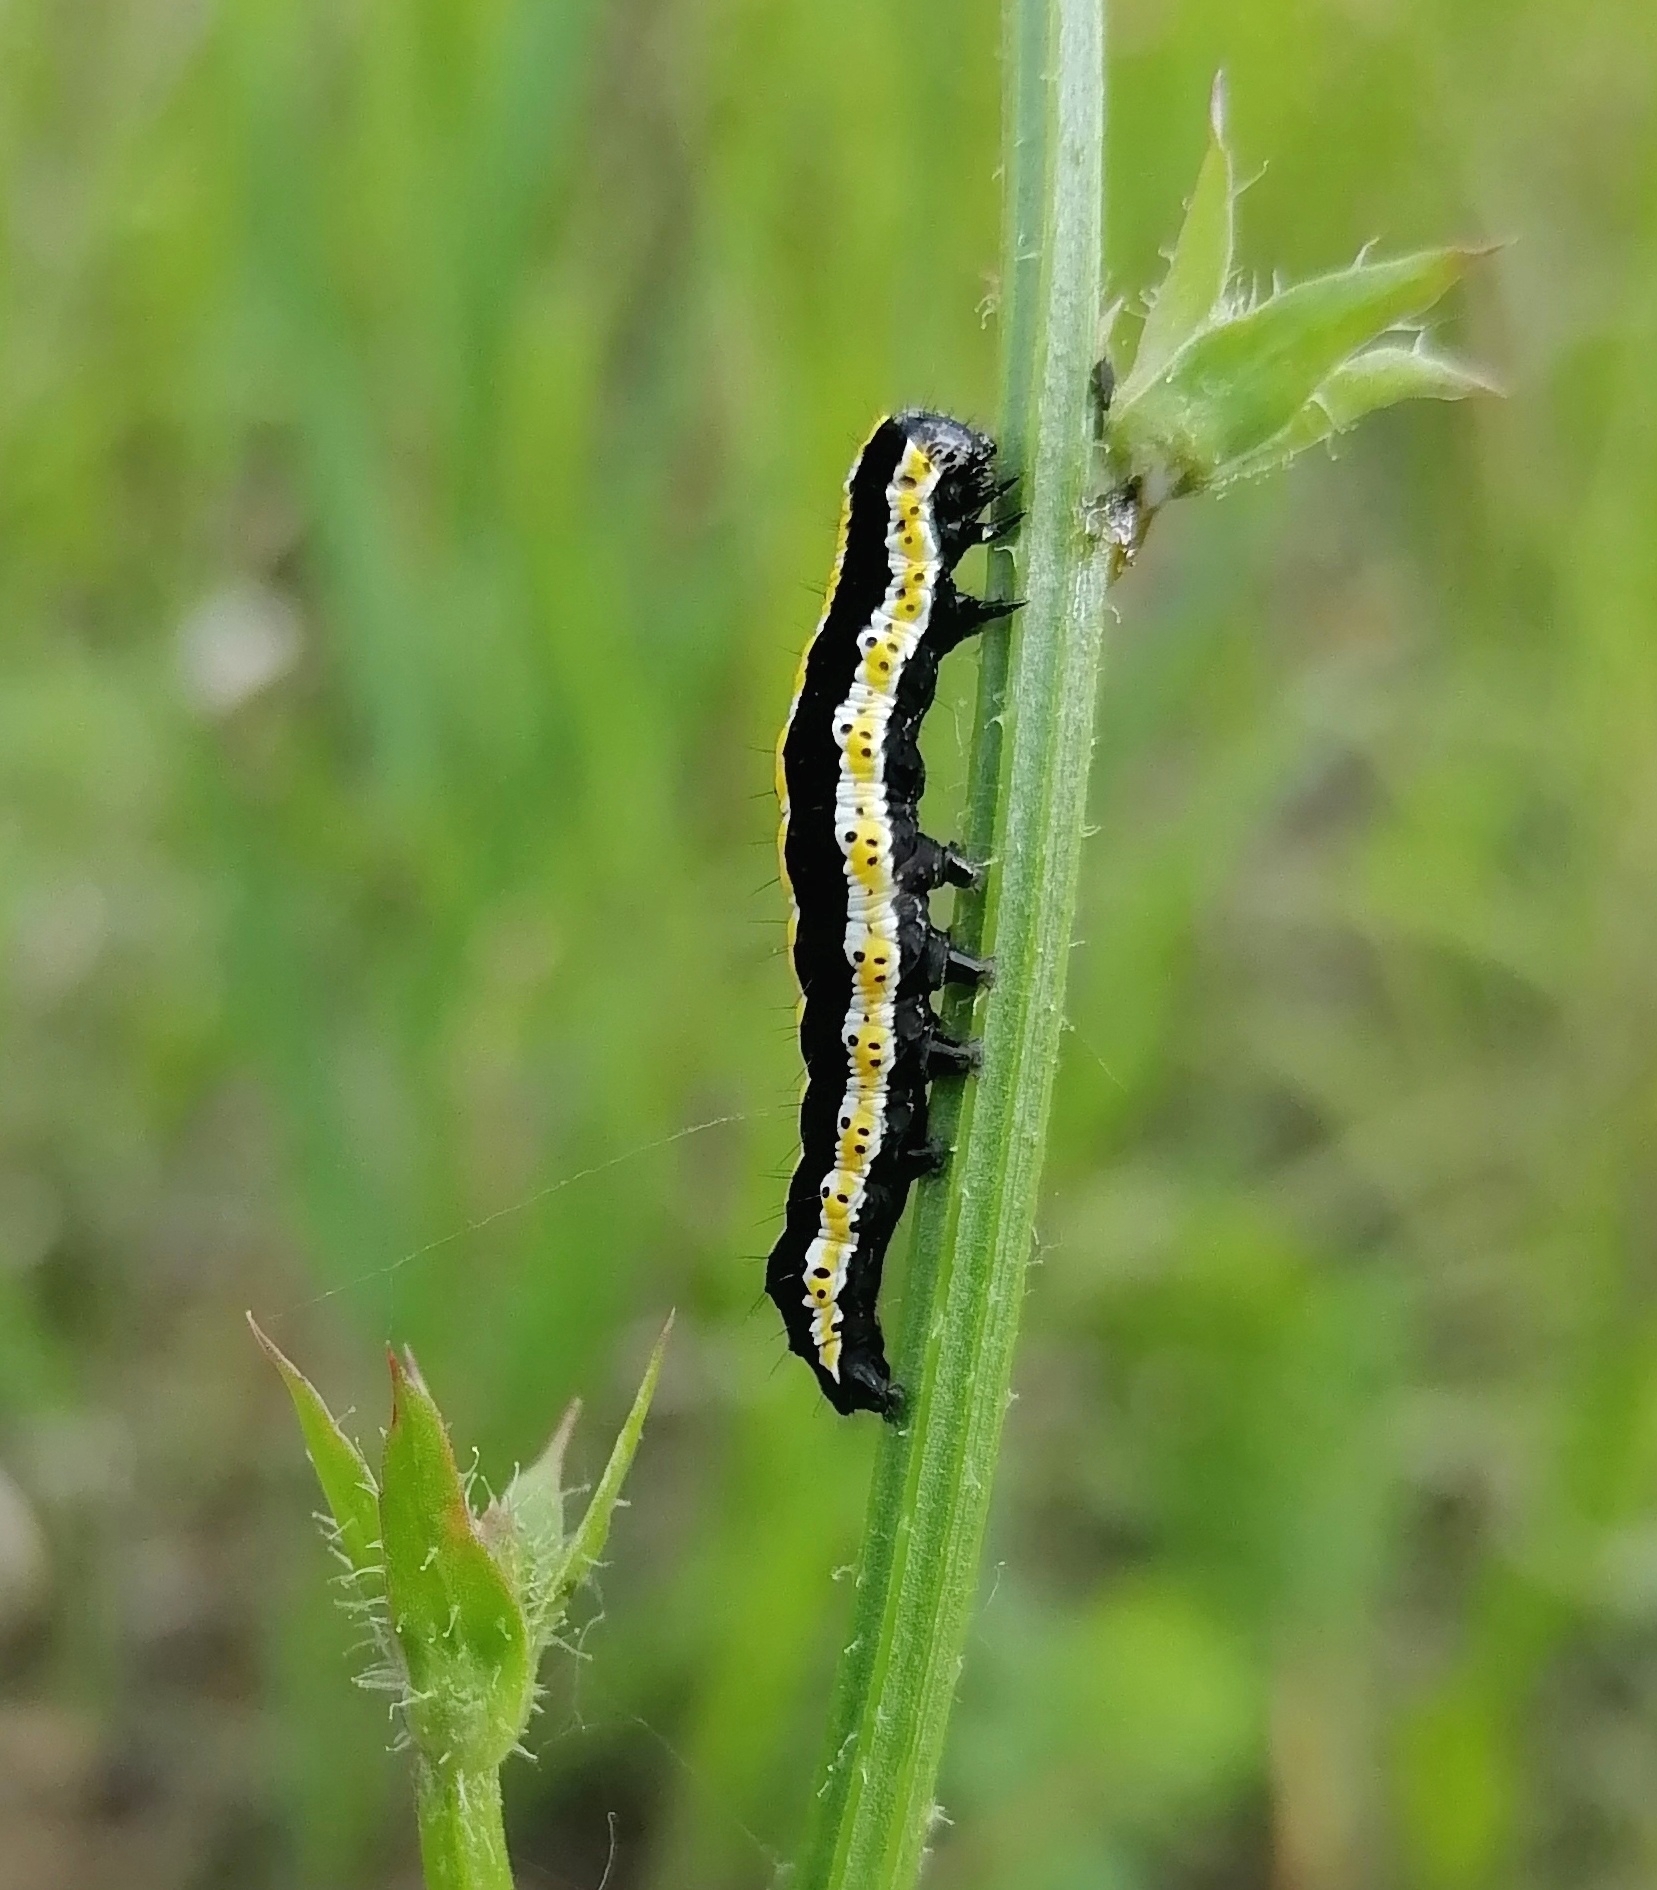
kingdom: Animalia
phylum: Arthropoda
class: Insecta
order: Lepidoptera
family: Noctuidae
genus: Cucullia
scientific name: Cucullia lucifuga
